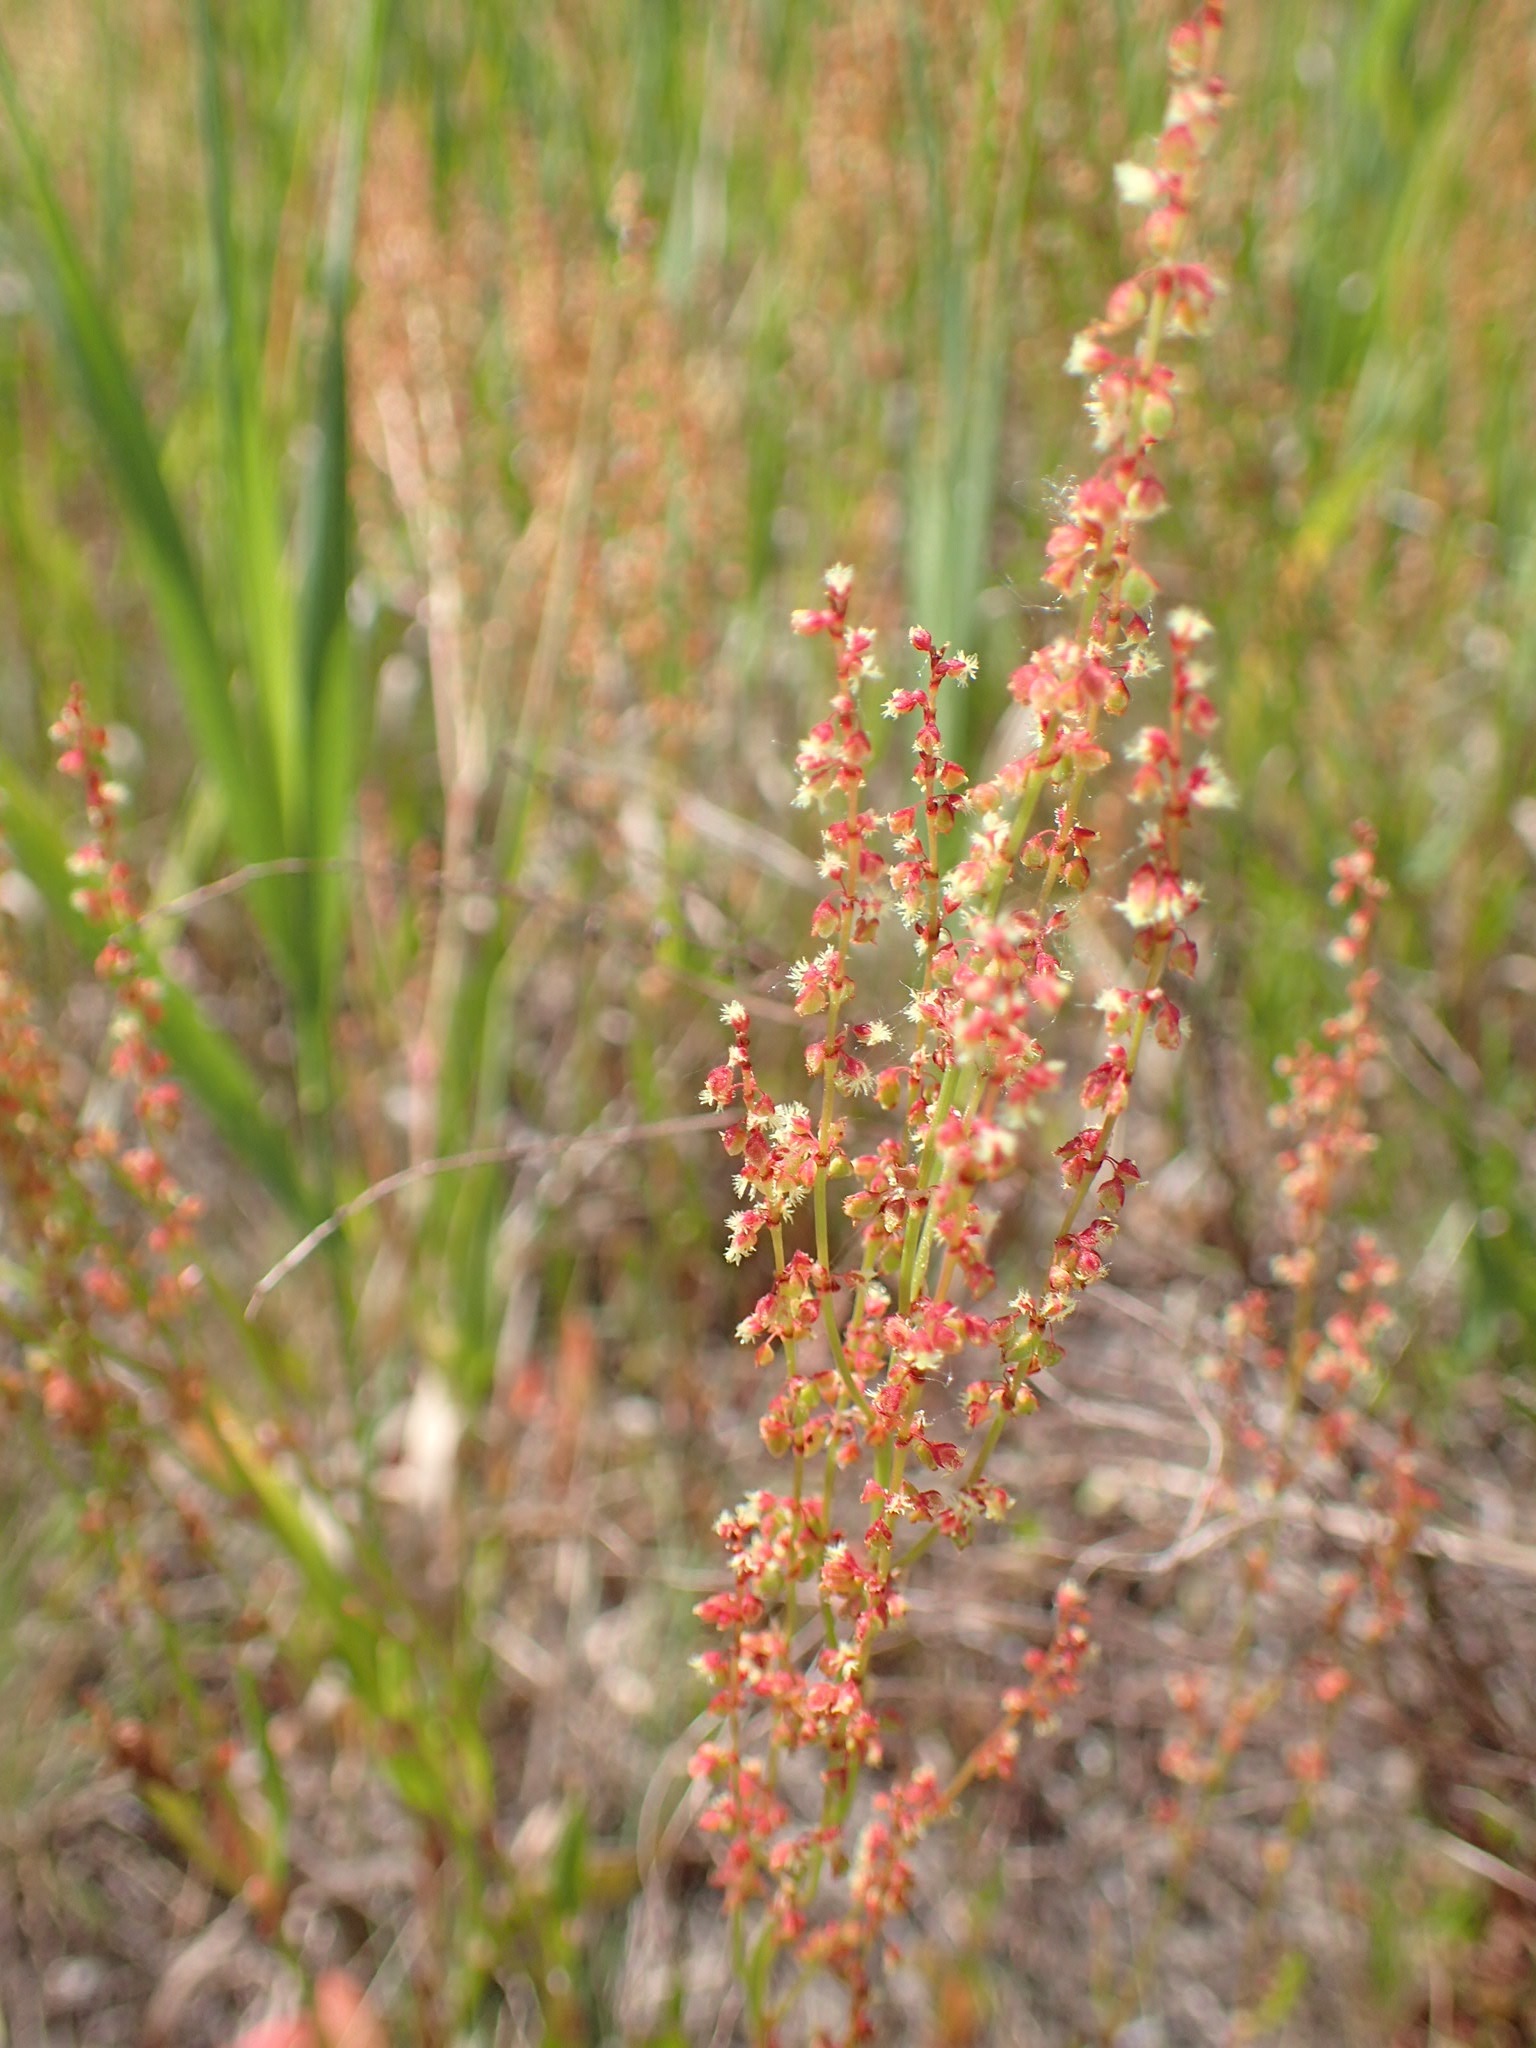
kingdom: Plantae
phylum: Tracheophyta
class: Magnoliopsida
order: Caryophyllales
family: Polygonaceae
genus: Rumex
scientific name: Rumex acetosella
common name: Common sheep sorrel
